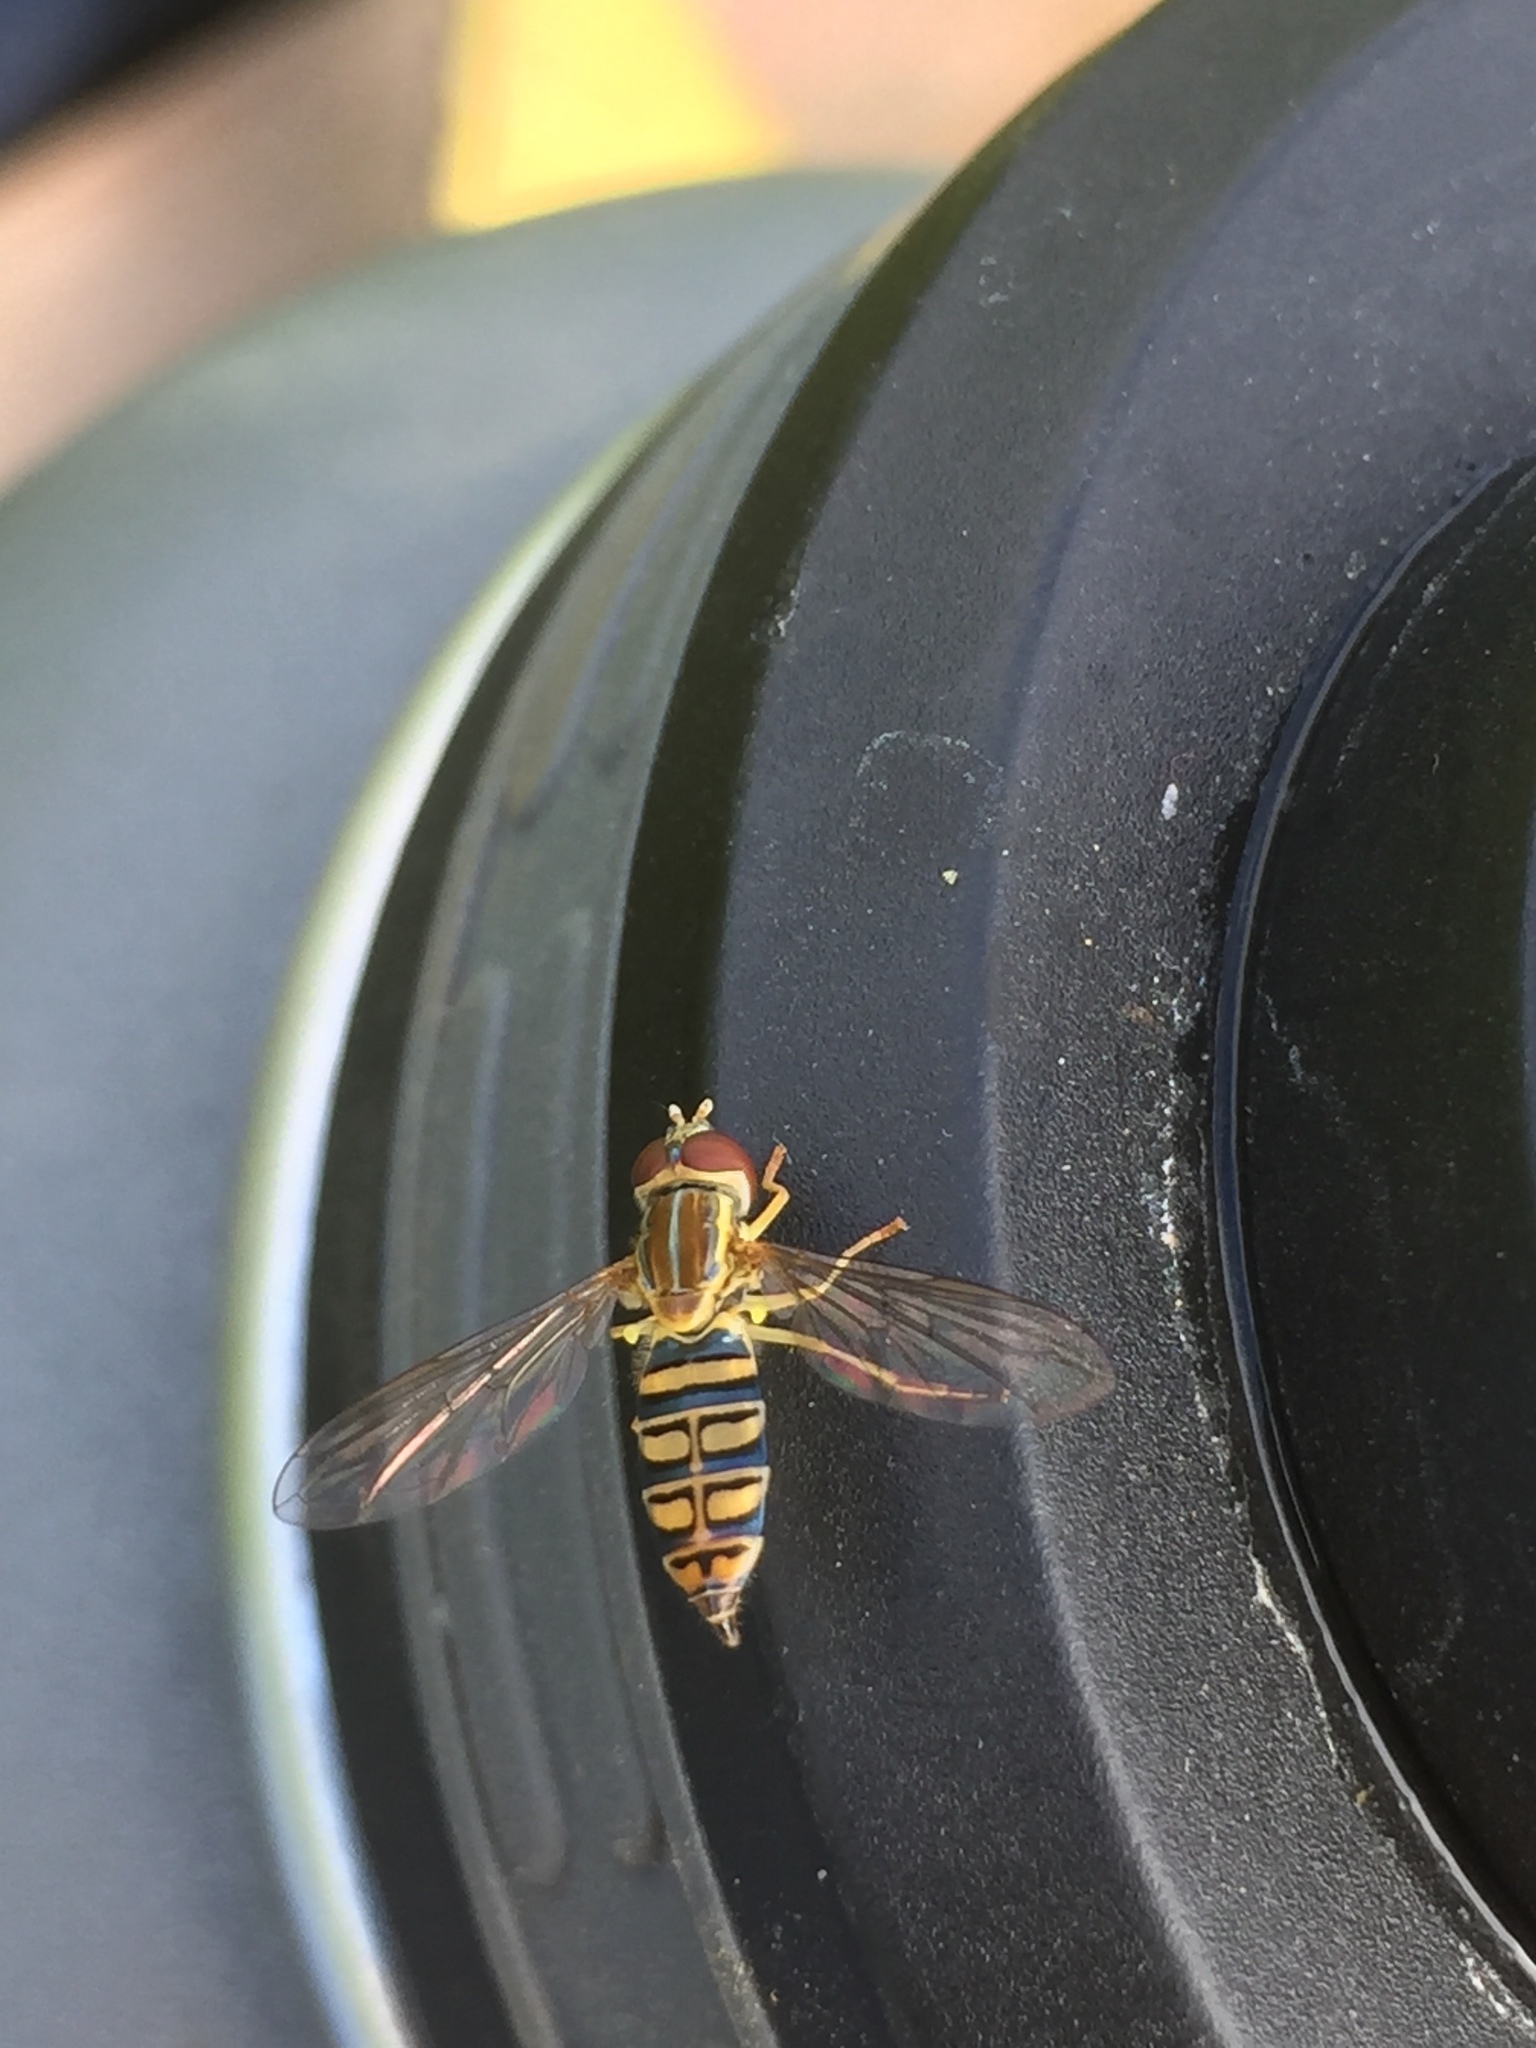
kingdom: Animalia
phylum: Arthropoda
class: Insecta
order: Diptera
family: Syrphidae
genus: Toxomerus
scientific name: Toxomerus politus
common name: Maize calligrapher
